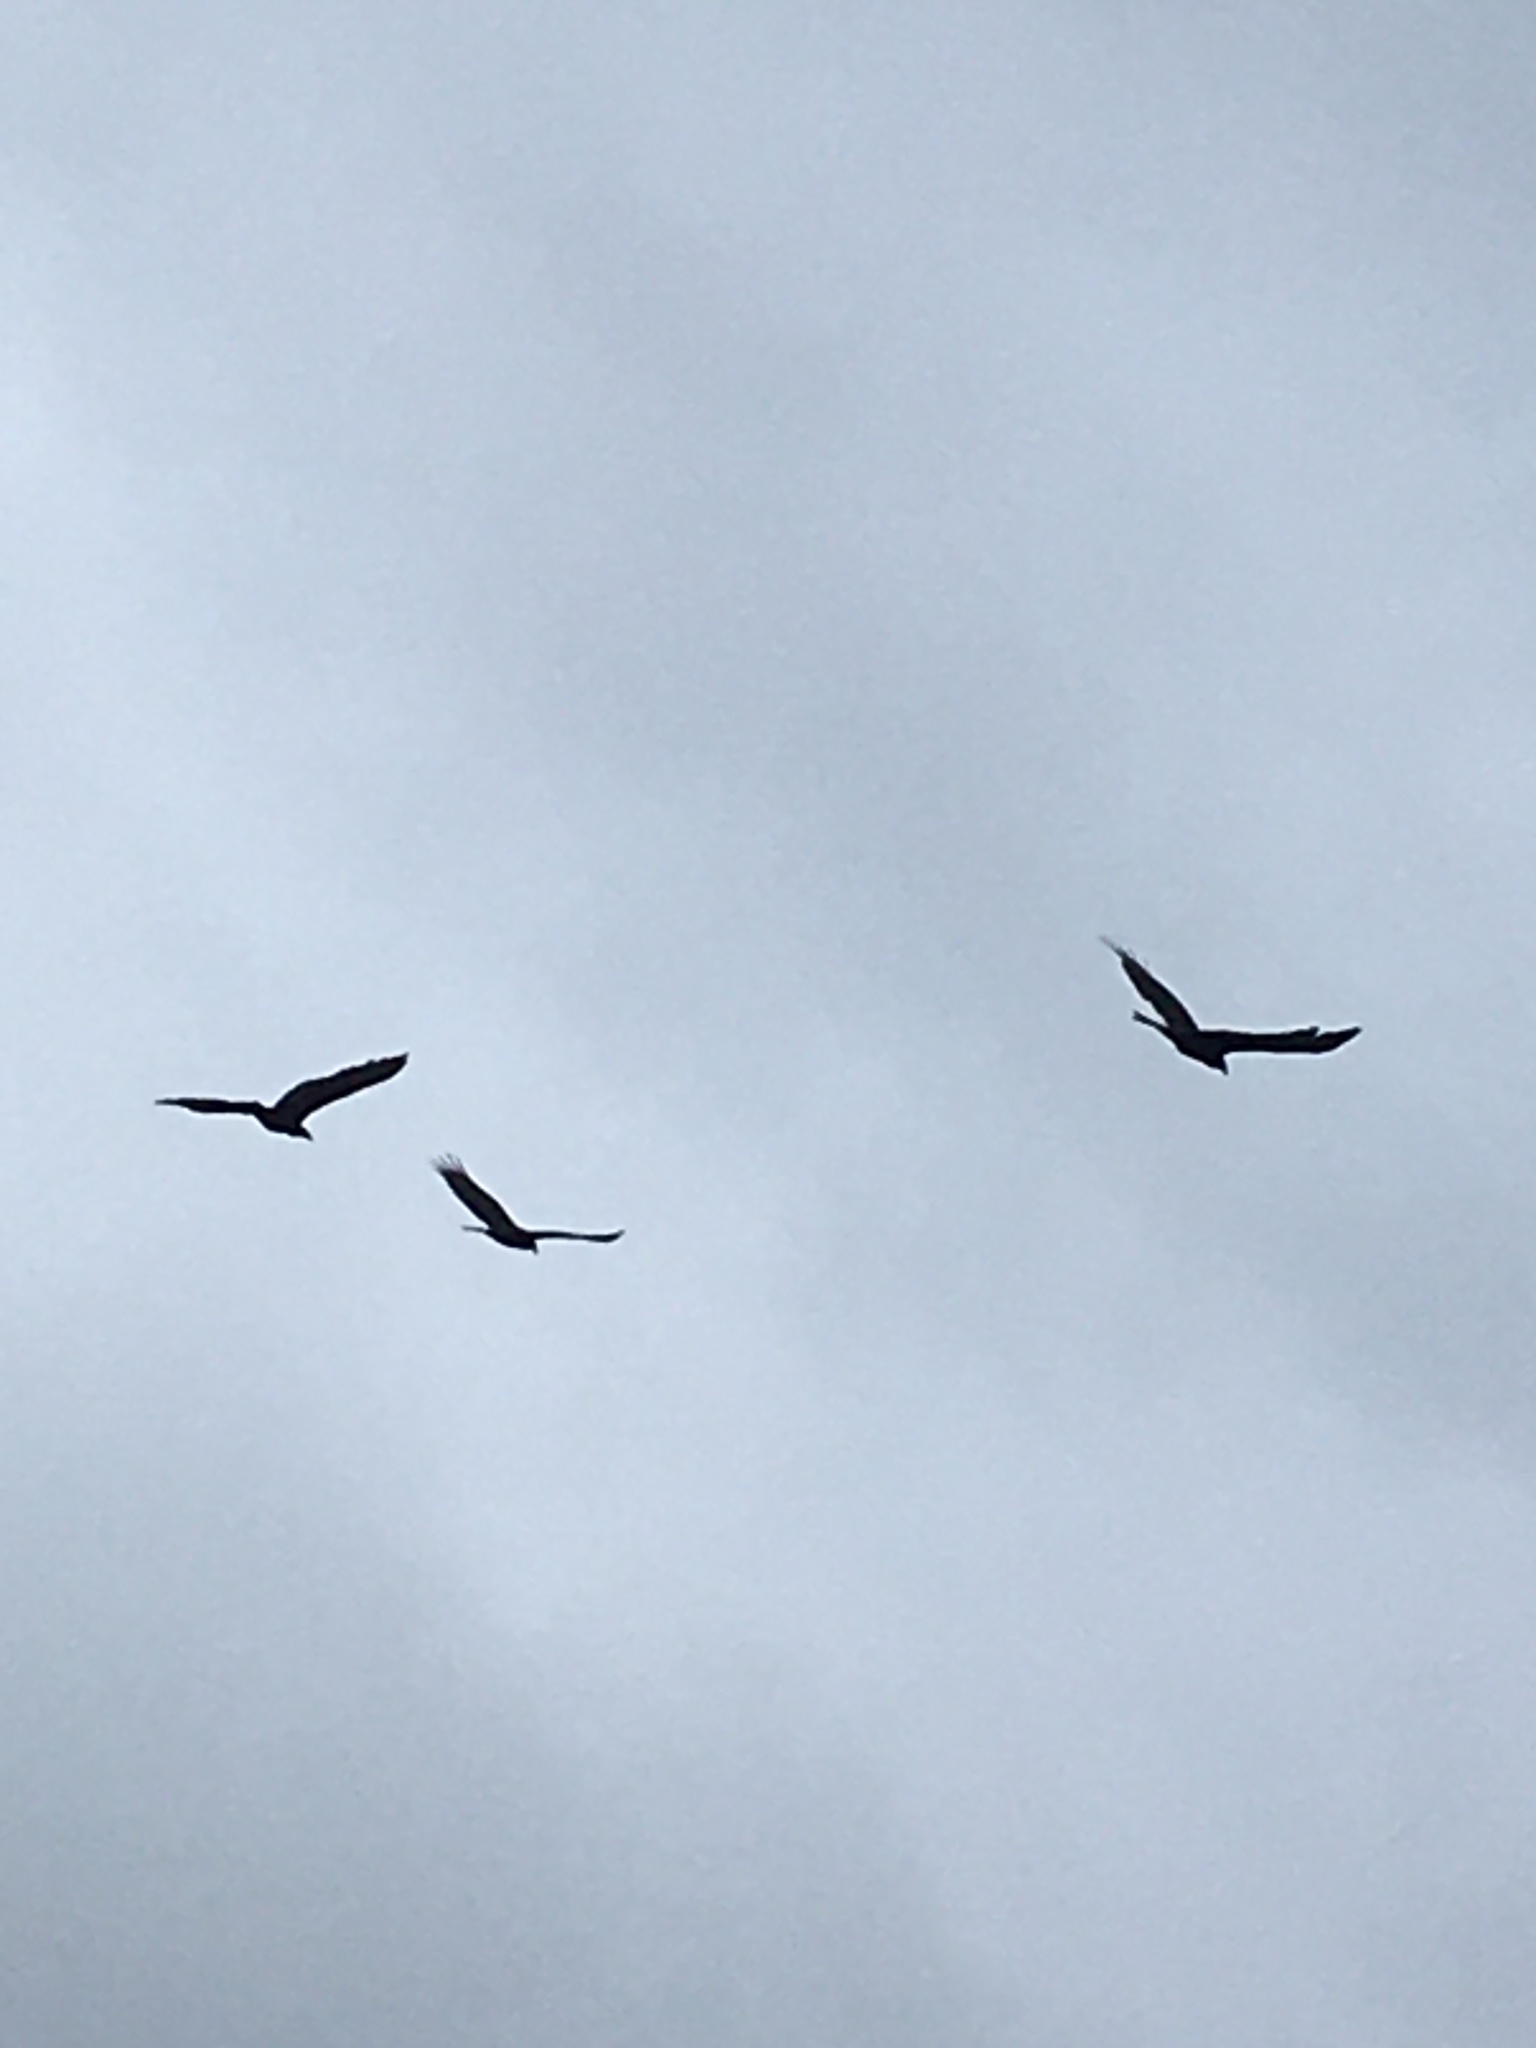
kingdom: Animalia
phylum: Chordata
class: Aves
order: Accipitriformes
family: Cathartidae
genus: Coragyps
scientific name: Coragyps atratus
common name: Black vulture
